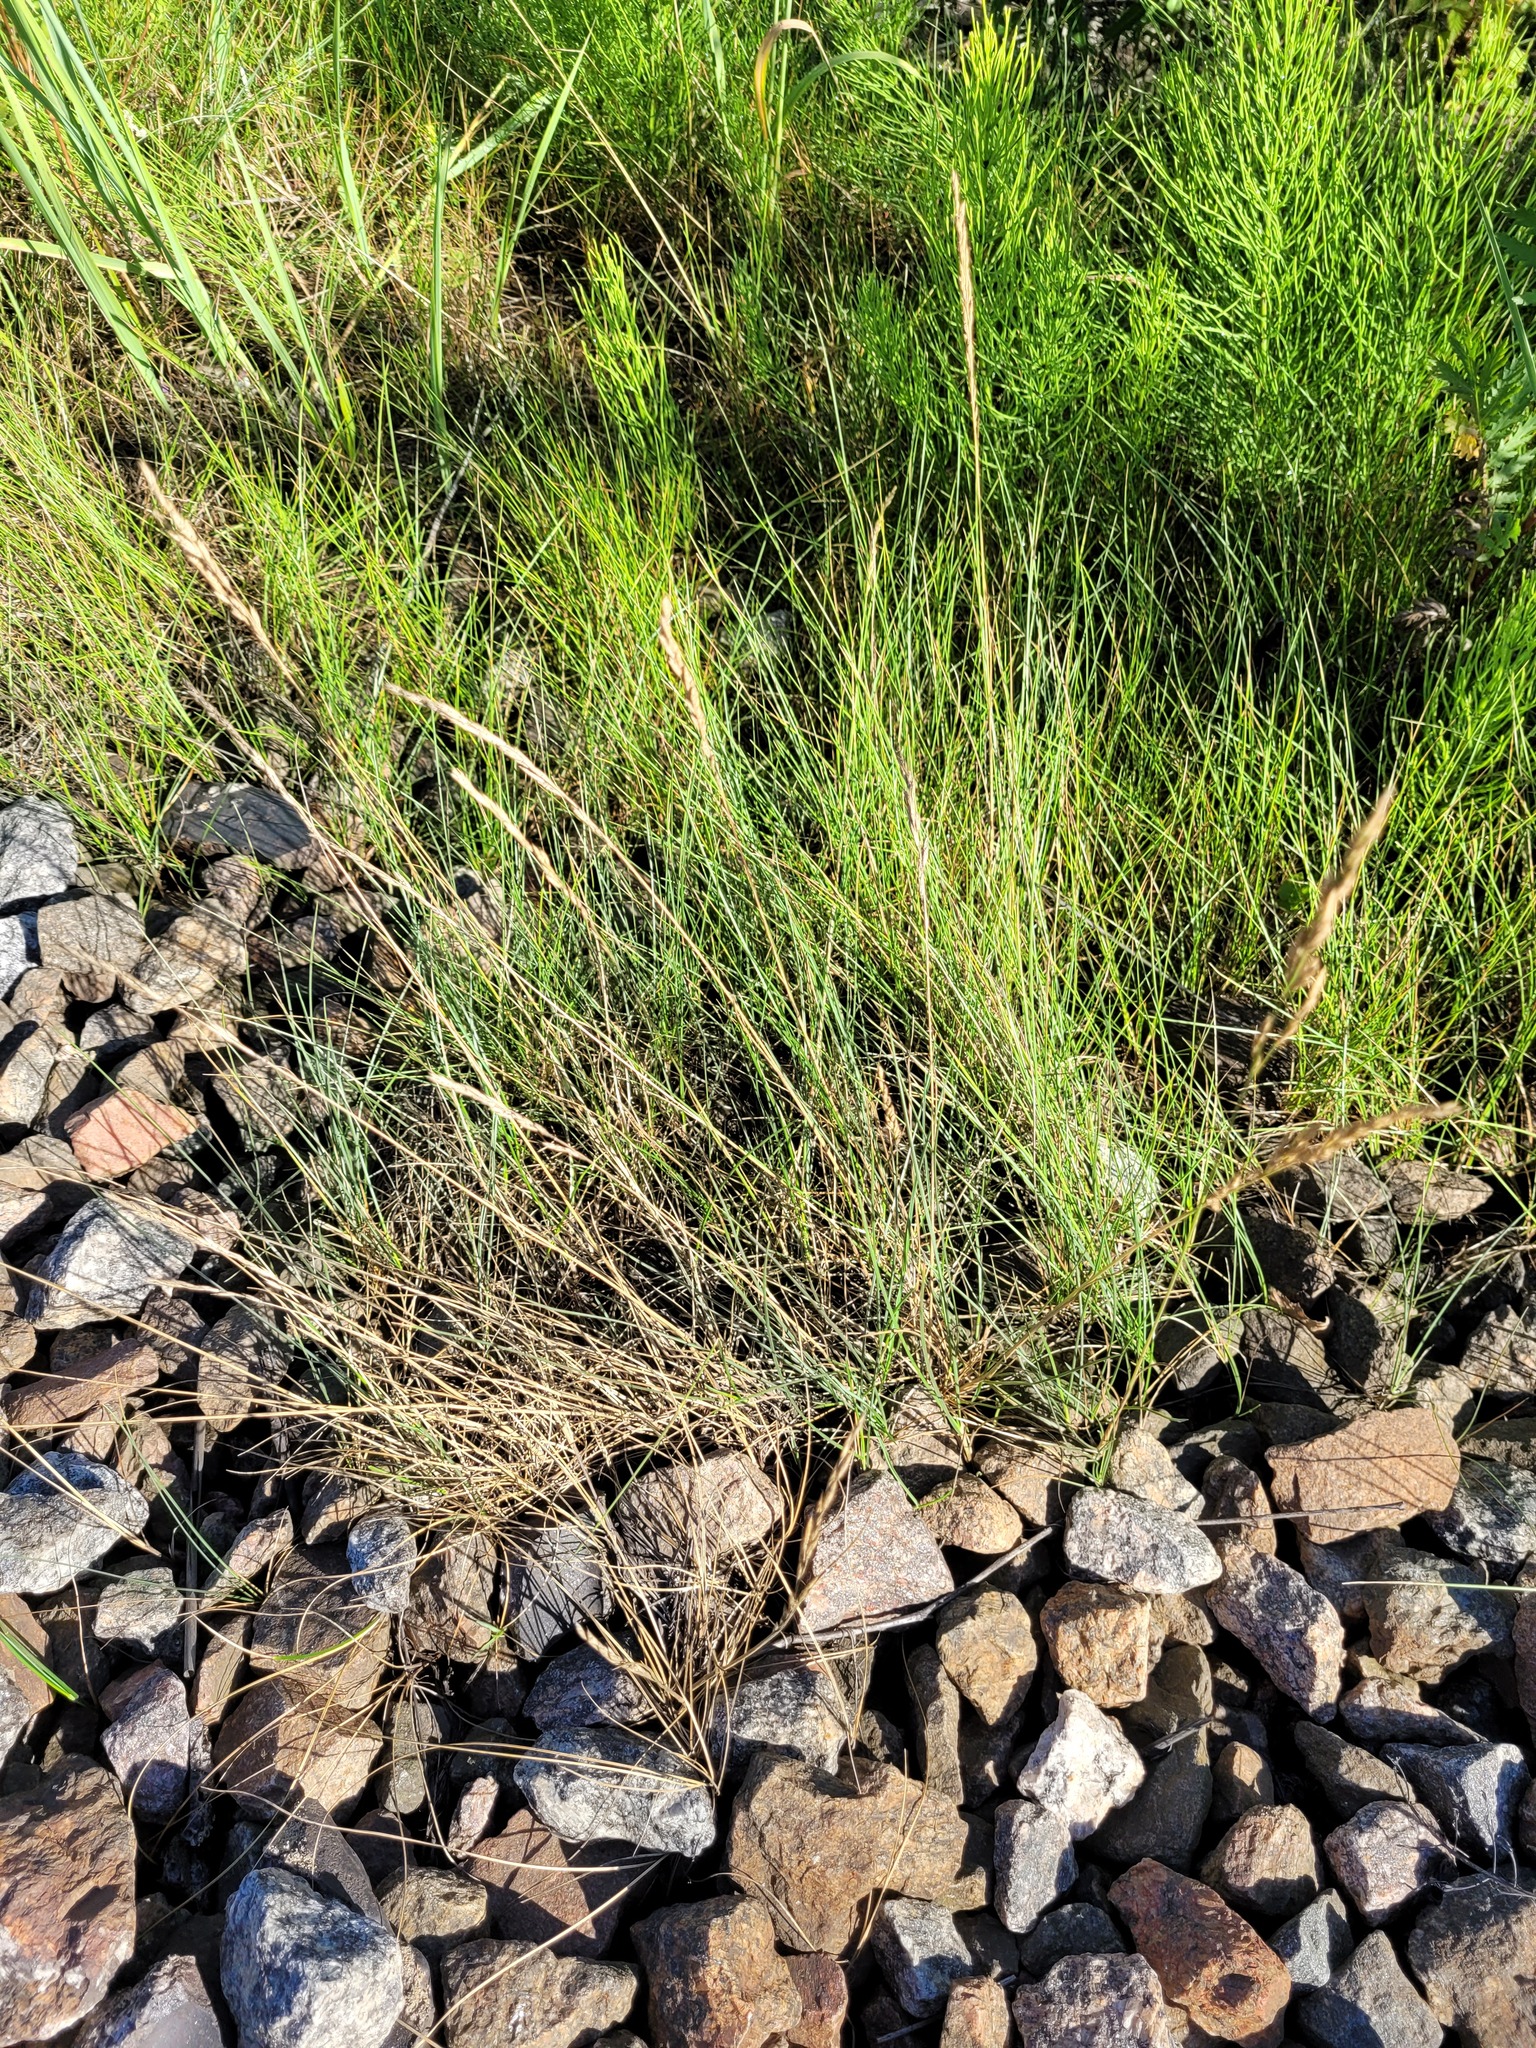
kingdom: Plantae
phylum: Tracheophyta
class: Liliopsida
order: Poales
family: Poaceae
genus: Festuca
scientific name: Festuca rubra
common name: Red fescue
